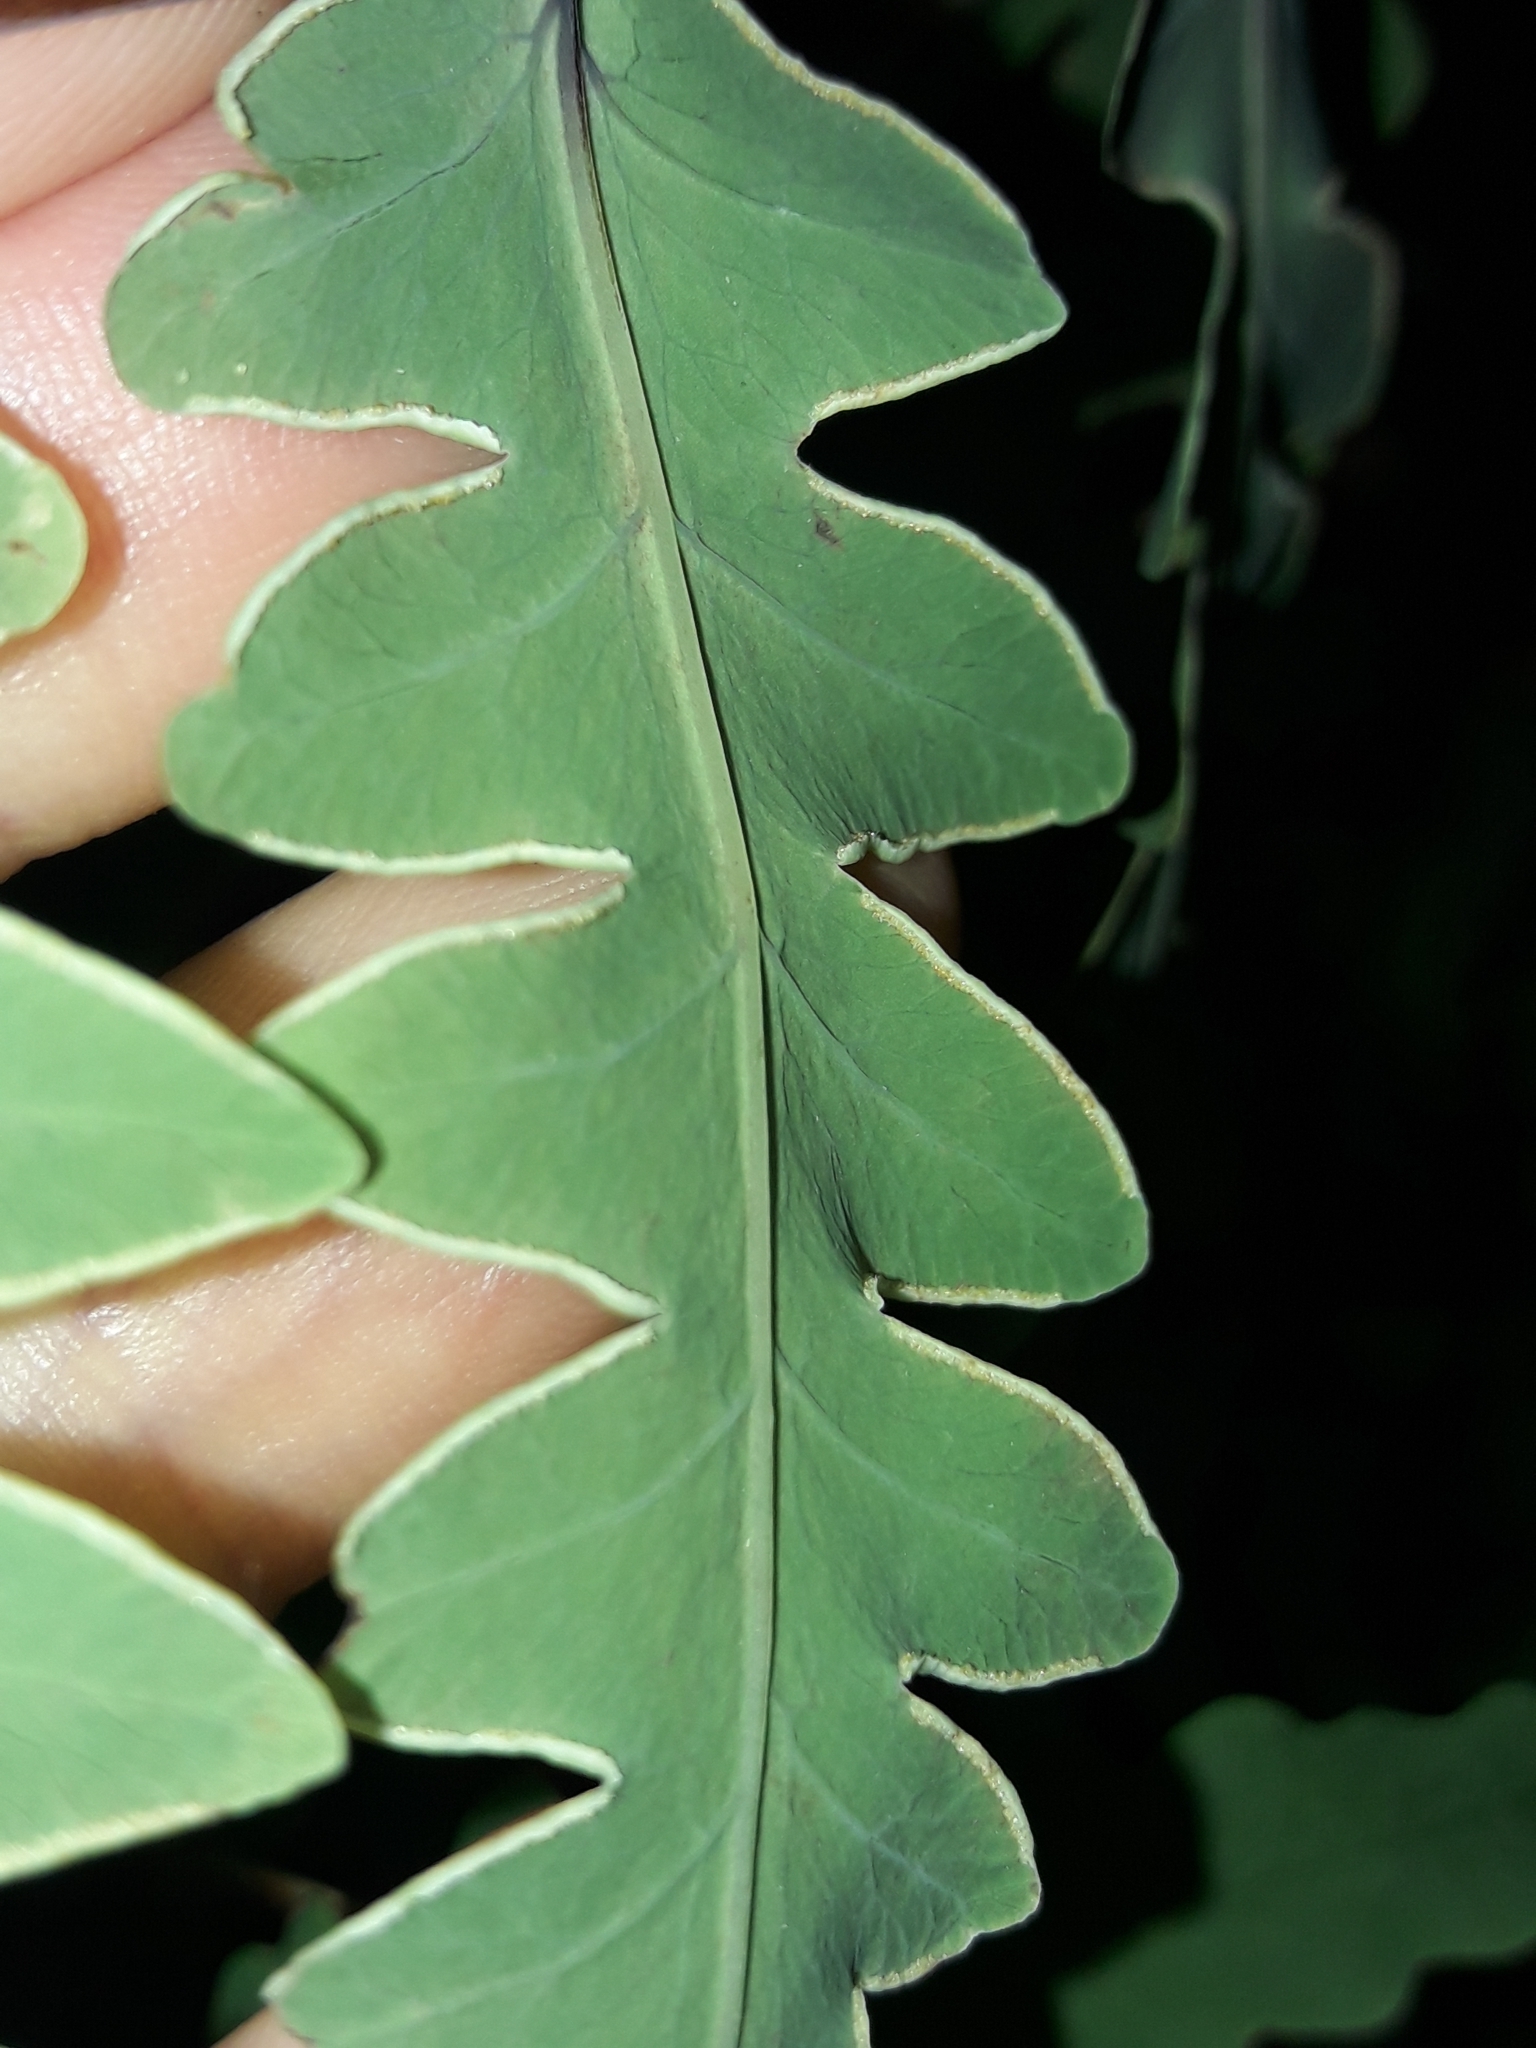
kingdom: Plantae
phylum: Tracheophyta
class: Polypodiopsida
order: Polypodiales
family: Dennstaedtiaceae
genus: Histiopteris
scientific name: Histiopteris incisa
